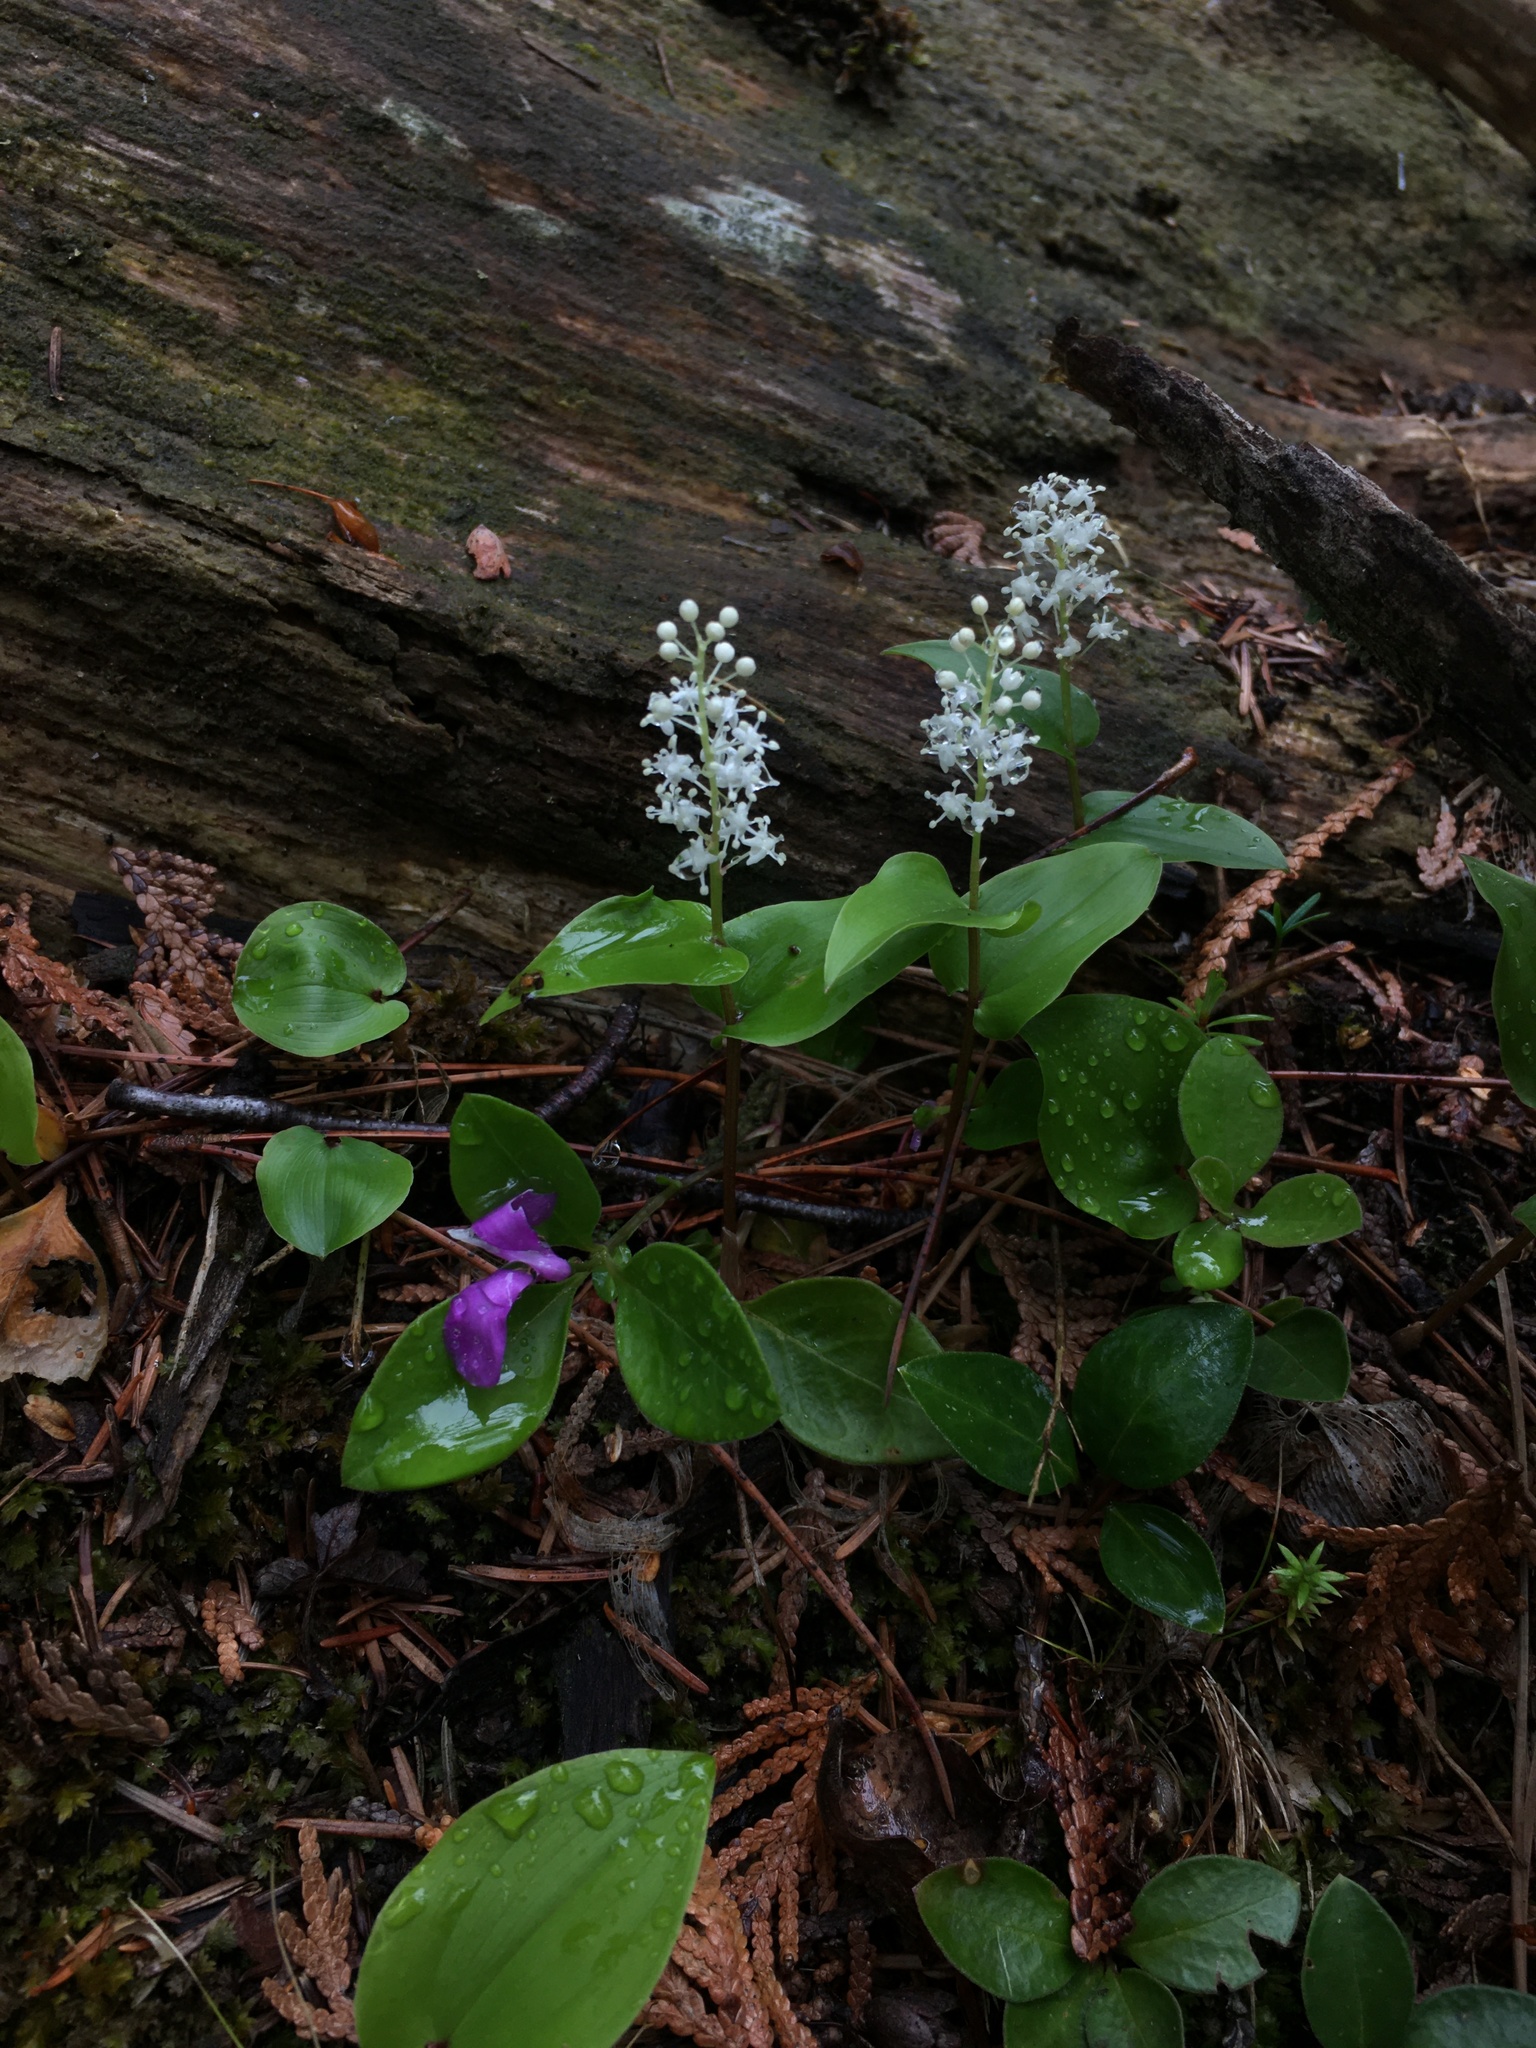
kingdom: Plantae
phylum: Tracheophyta
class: Liliopsida
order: Asparagales
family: Asparagaceae
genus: Maianthemum
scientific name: Maianthemum canadense
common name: False lily-of-the-valley
